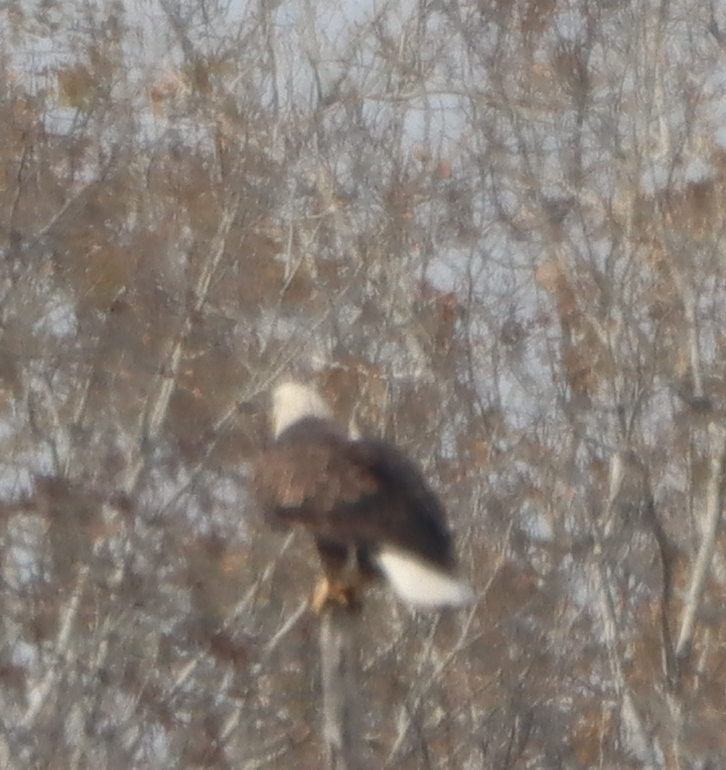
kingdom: Animalia
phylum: Chordata
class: Aves
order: Accipitriformes
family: Accipitridae
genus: Haliaeetus
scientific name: Haliaeetus leucocephalus
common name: Bald eagle
